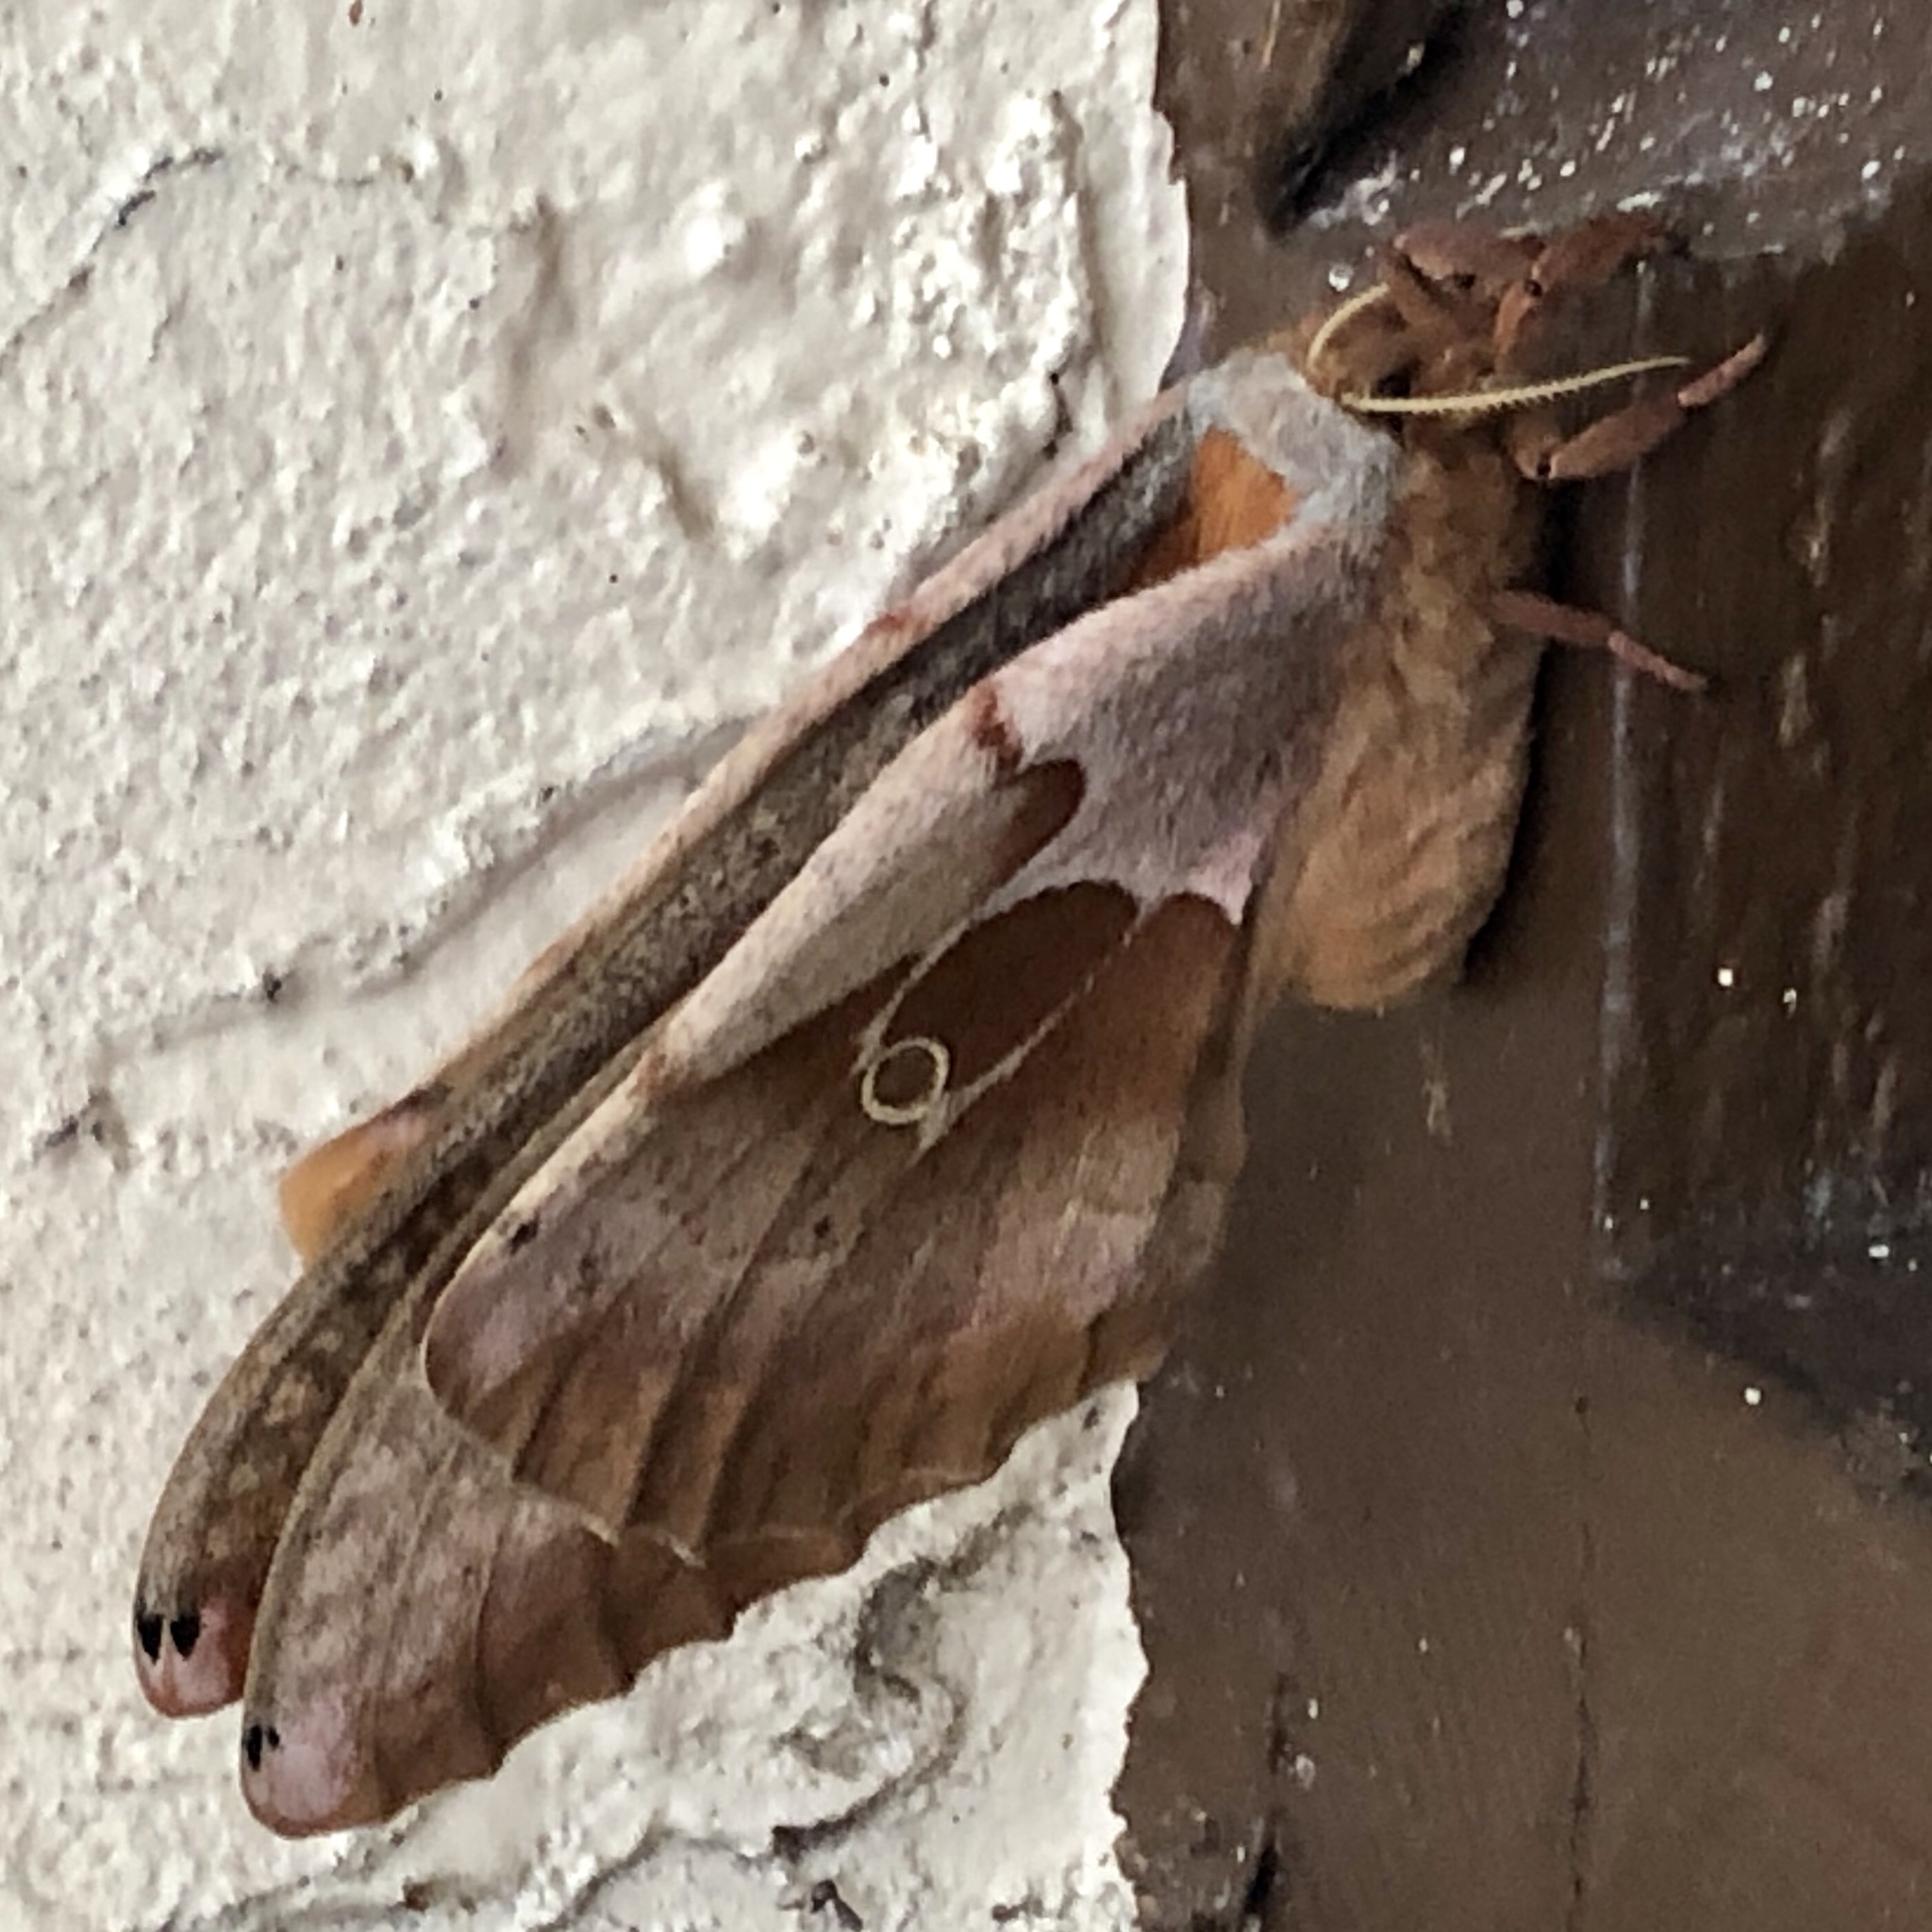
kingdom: Animalia
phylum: Arthropoda
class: Insecta
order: Lepidoptera
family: Saturniidae
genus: Antheraea
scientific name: Antheraea polyphemus
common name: Polyphemus moth
